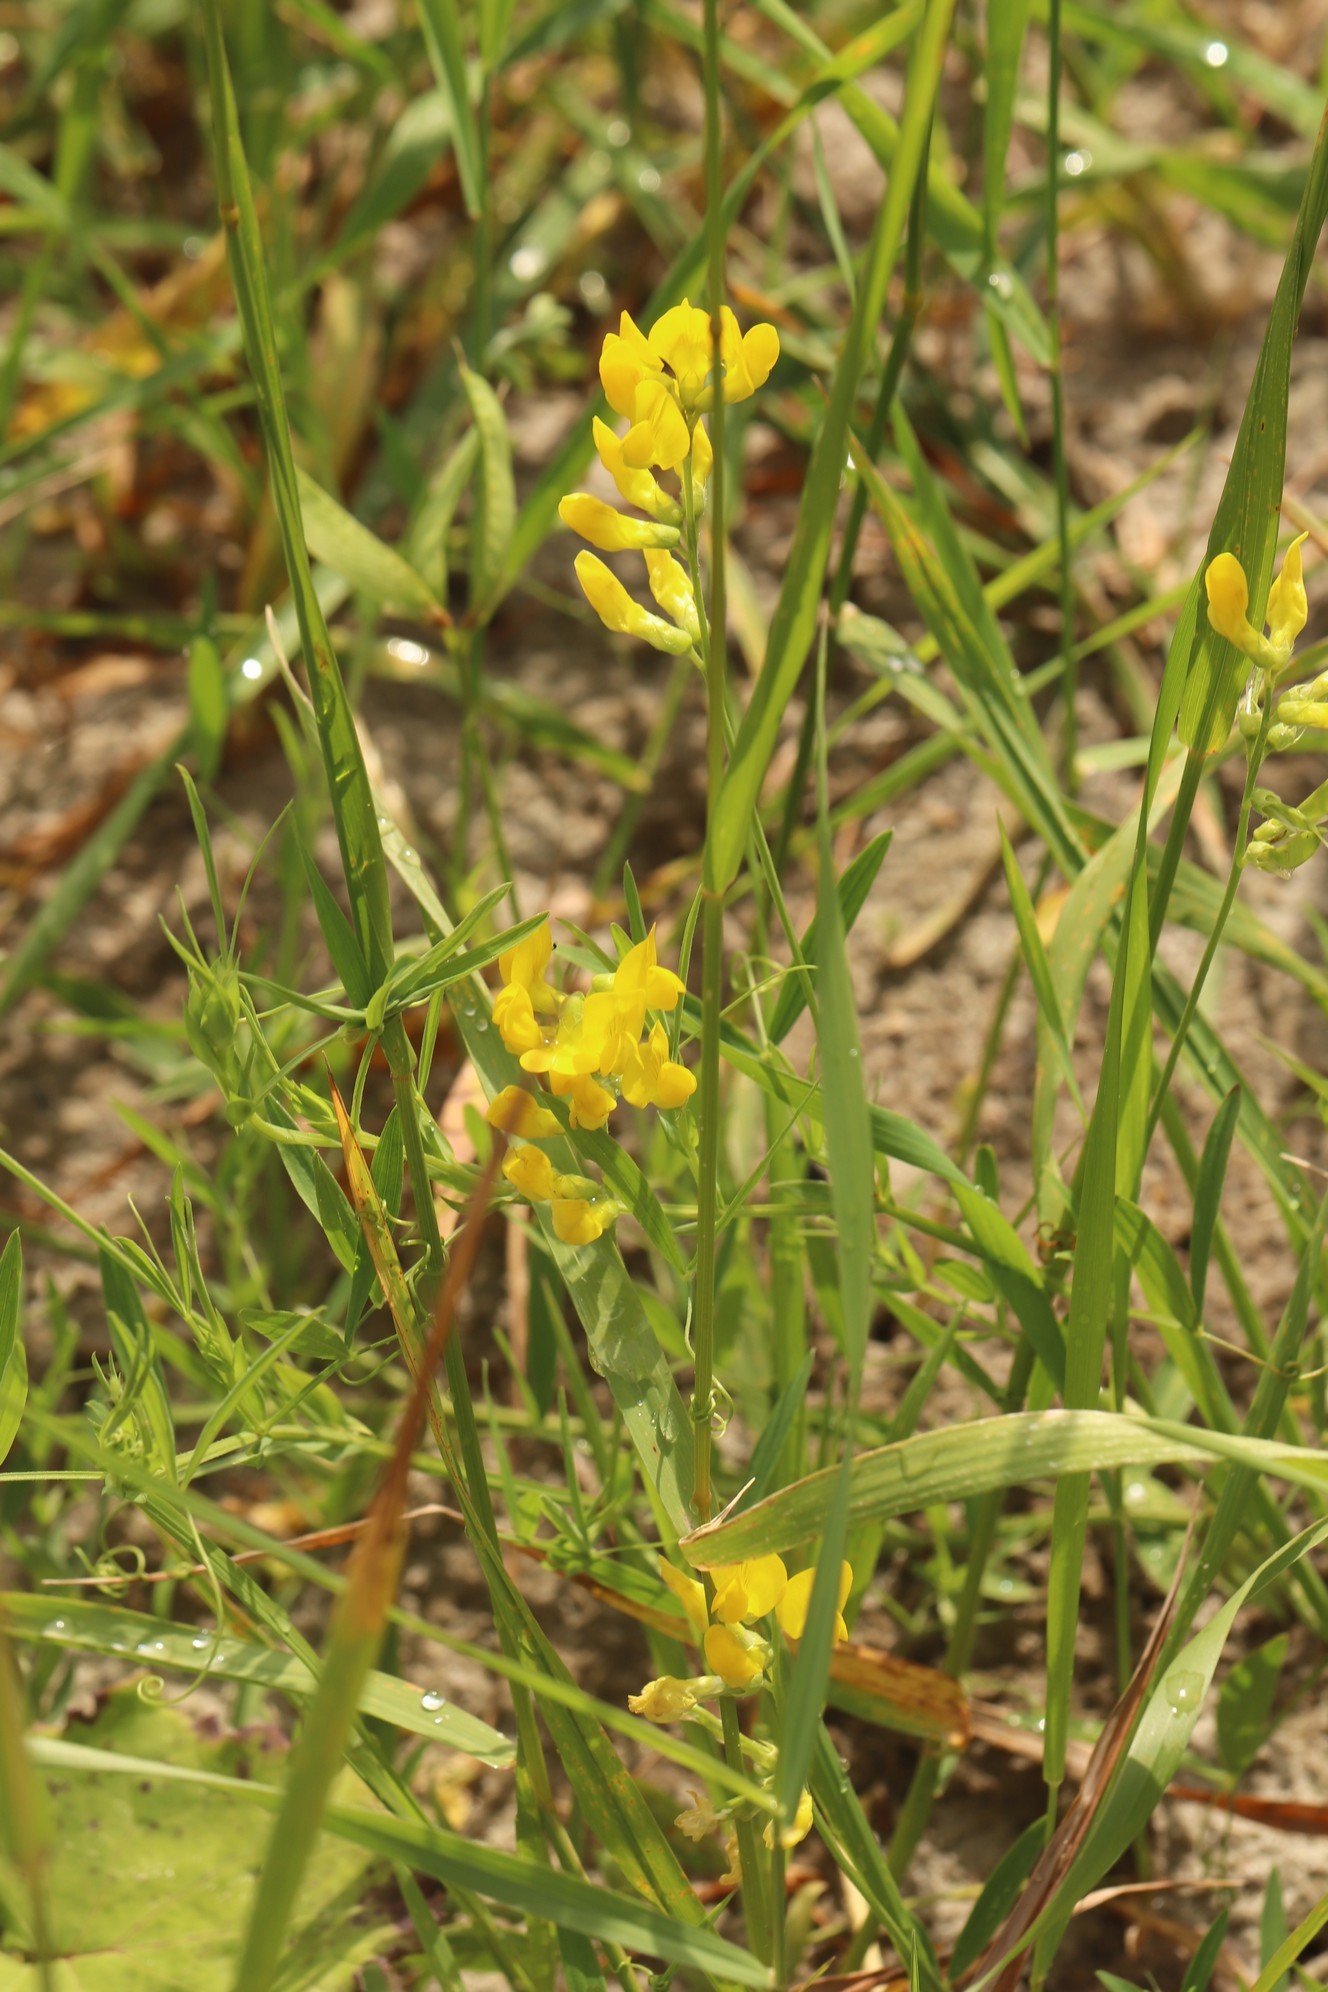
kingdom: Plantae
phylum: Tracheophyta
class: Magnoliopsida
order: Fabales
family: Fabaceae
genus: Lathyrus
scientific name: Lathyrus pratensis
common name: Meadow vetchling
